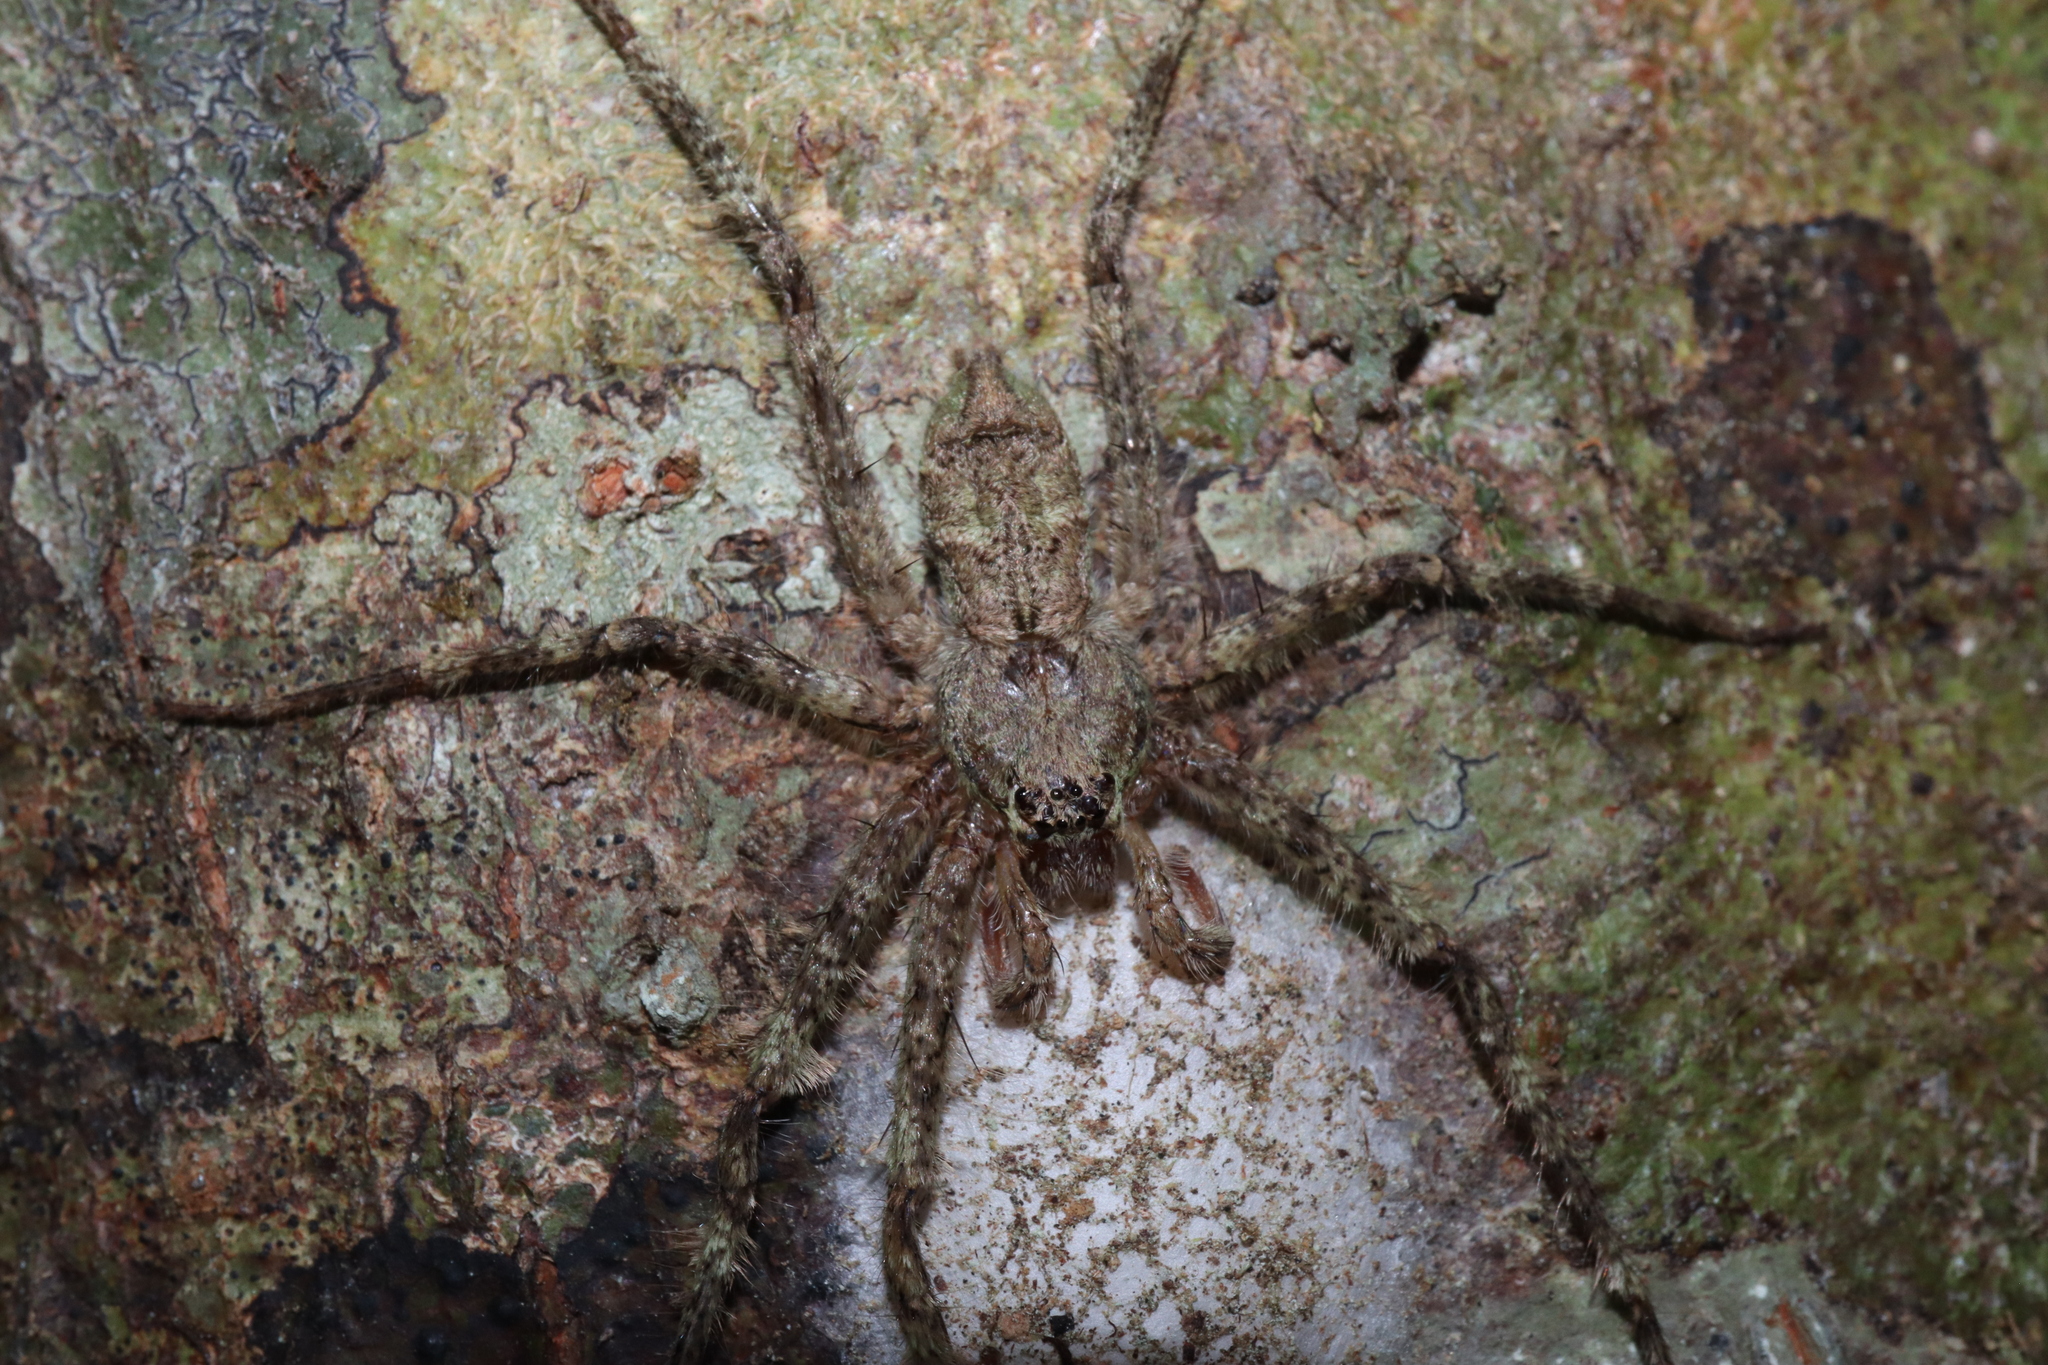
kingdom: Animalia
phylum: Arthropoda
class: Arachnida
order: Araneae
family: Sparassidae
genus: Pandercetes
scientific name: Pandercetes gracilis
